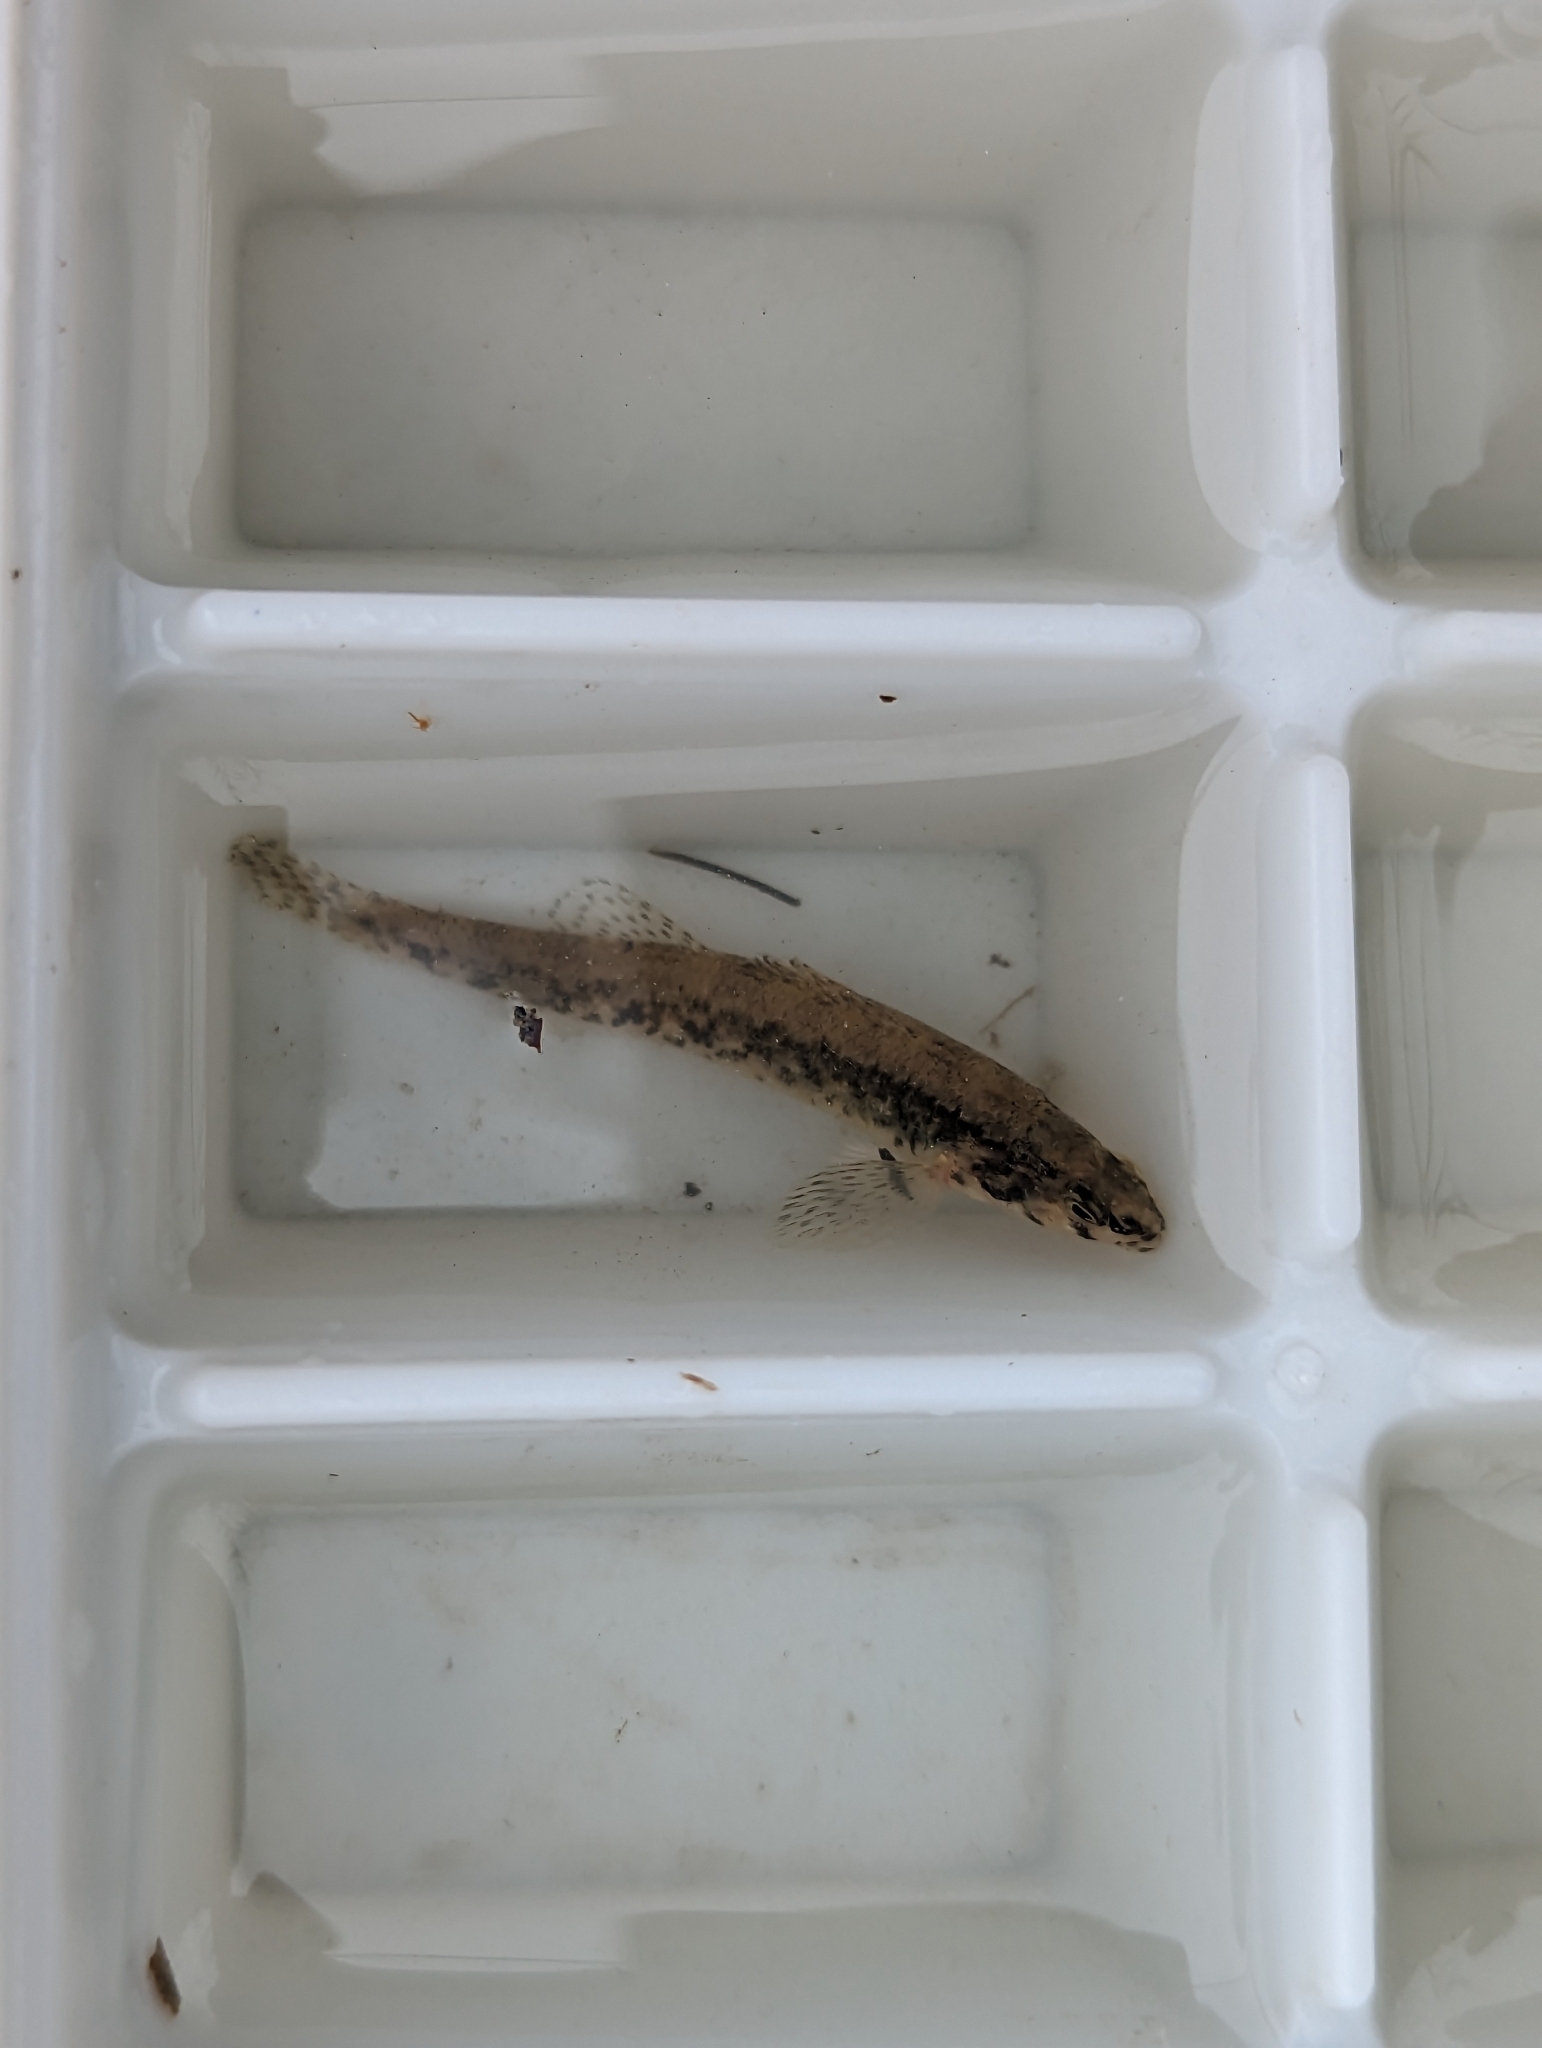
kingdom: Animalia
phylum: Chordata
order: Perciformes
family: Percidae
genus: Etheostoma
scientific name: Etheostoma exile
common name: Iowa darter
